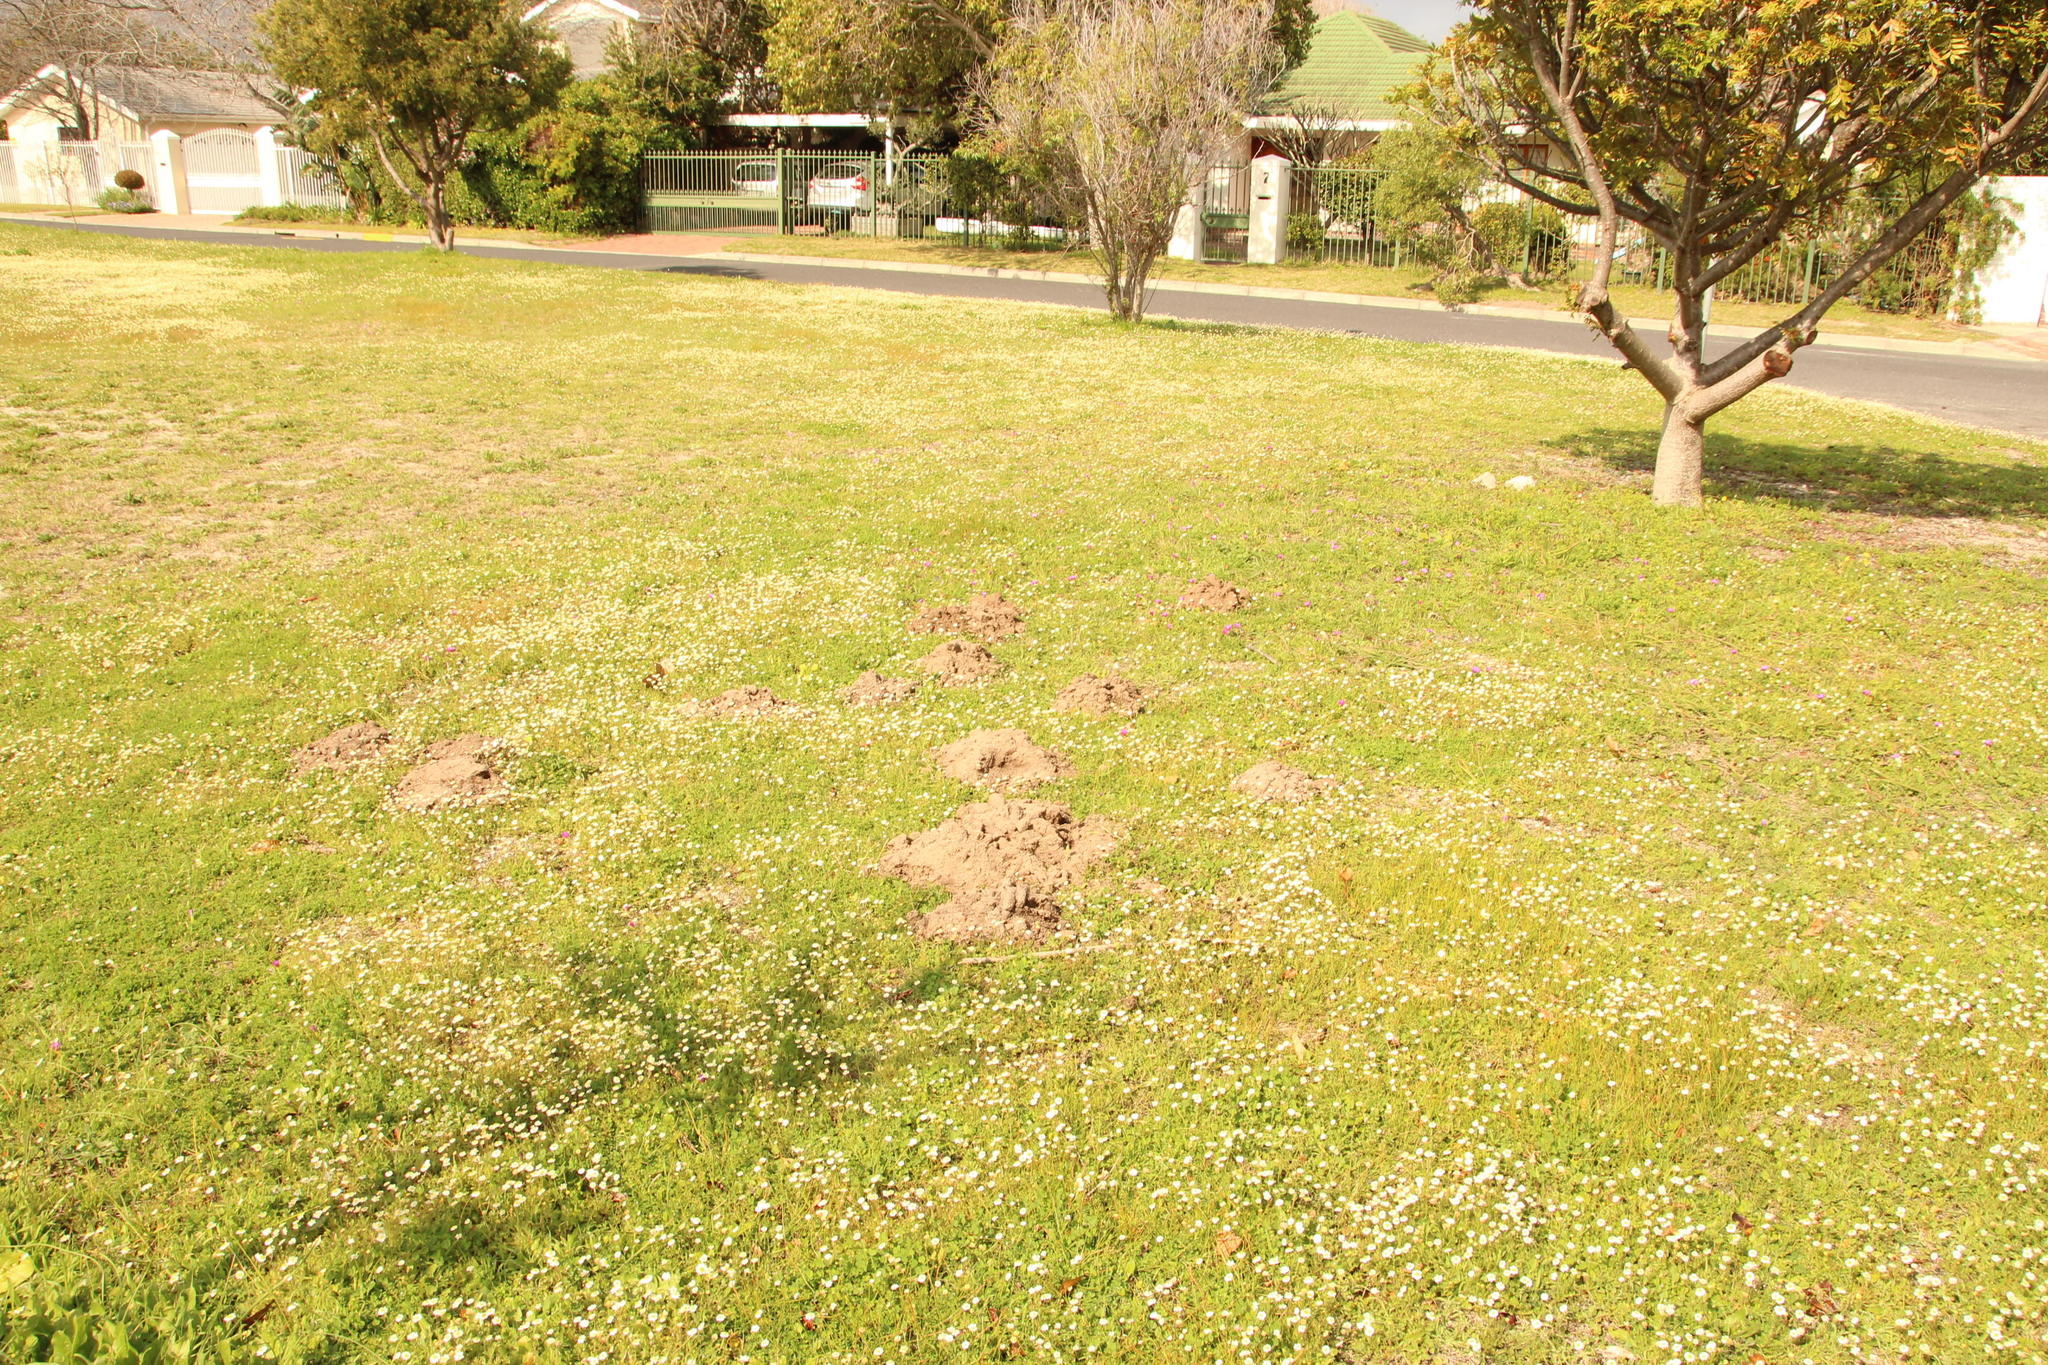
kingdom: Plantae
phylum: Tracheophyta
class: Magnoliopsida
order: Asterales
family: Asteraceae
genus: Cotula
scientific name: Cotula turbinata
